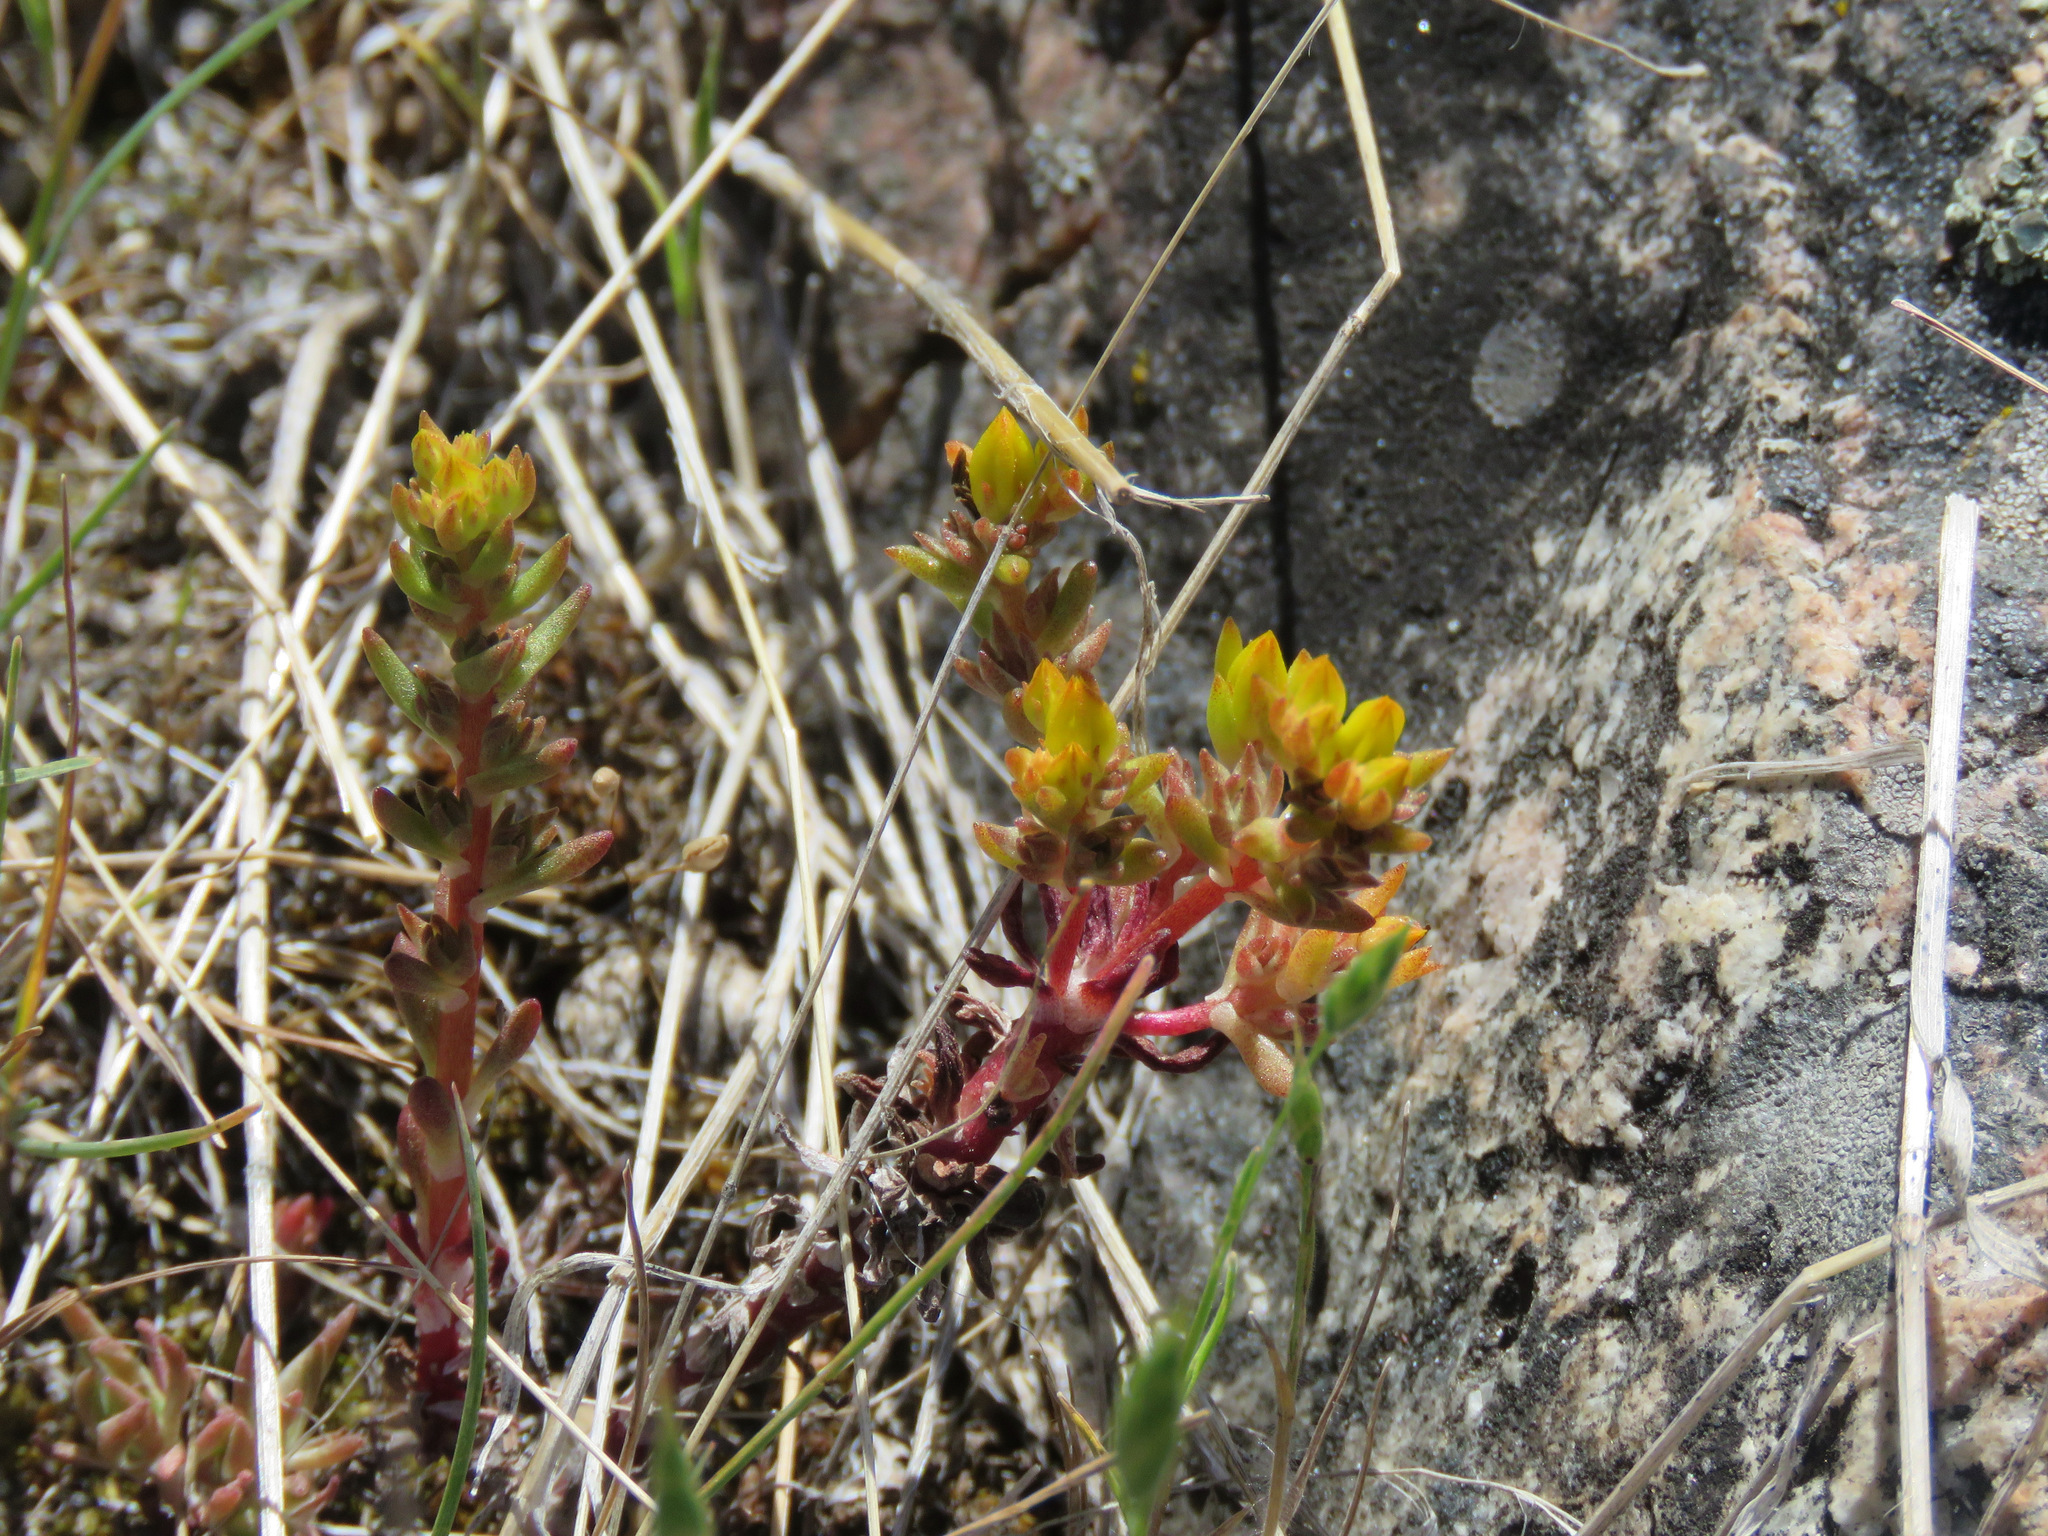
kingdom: Plantae
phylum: Tracheophyta
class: Magnoliopsida
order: Saxifragales
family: Crassulaceae
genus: Sedum
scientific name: Sedum stenopetalum
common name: Narrow-petaled stonecrop
